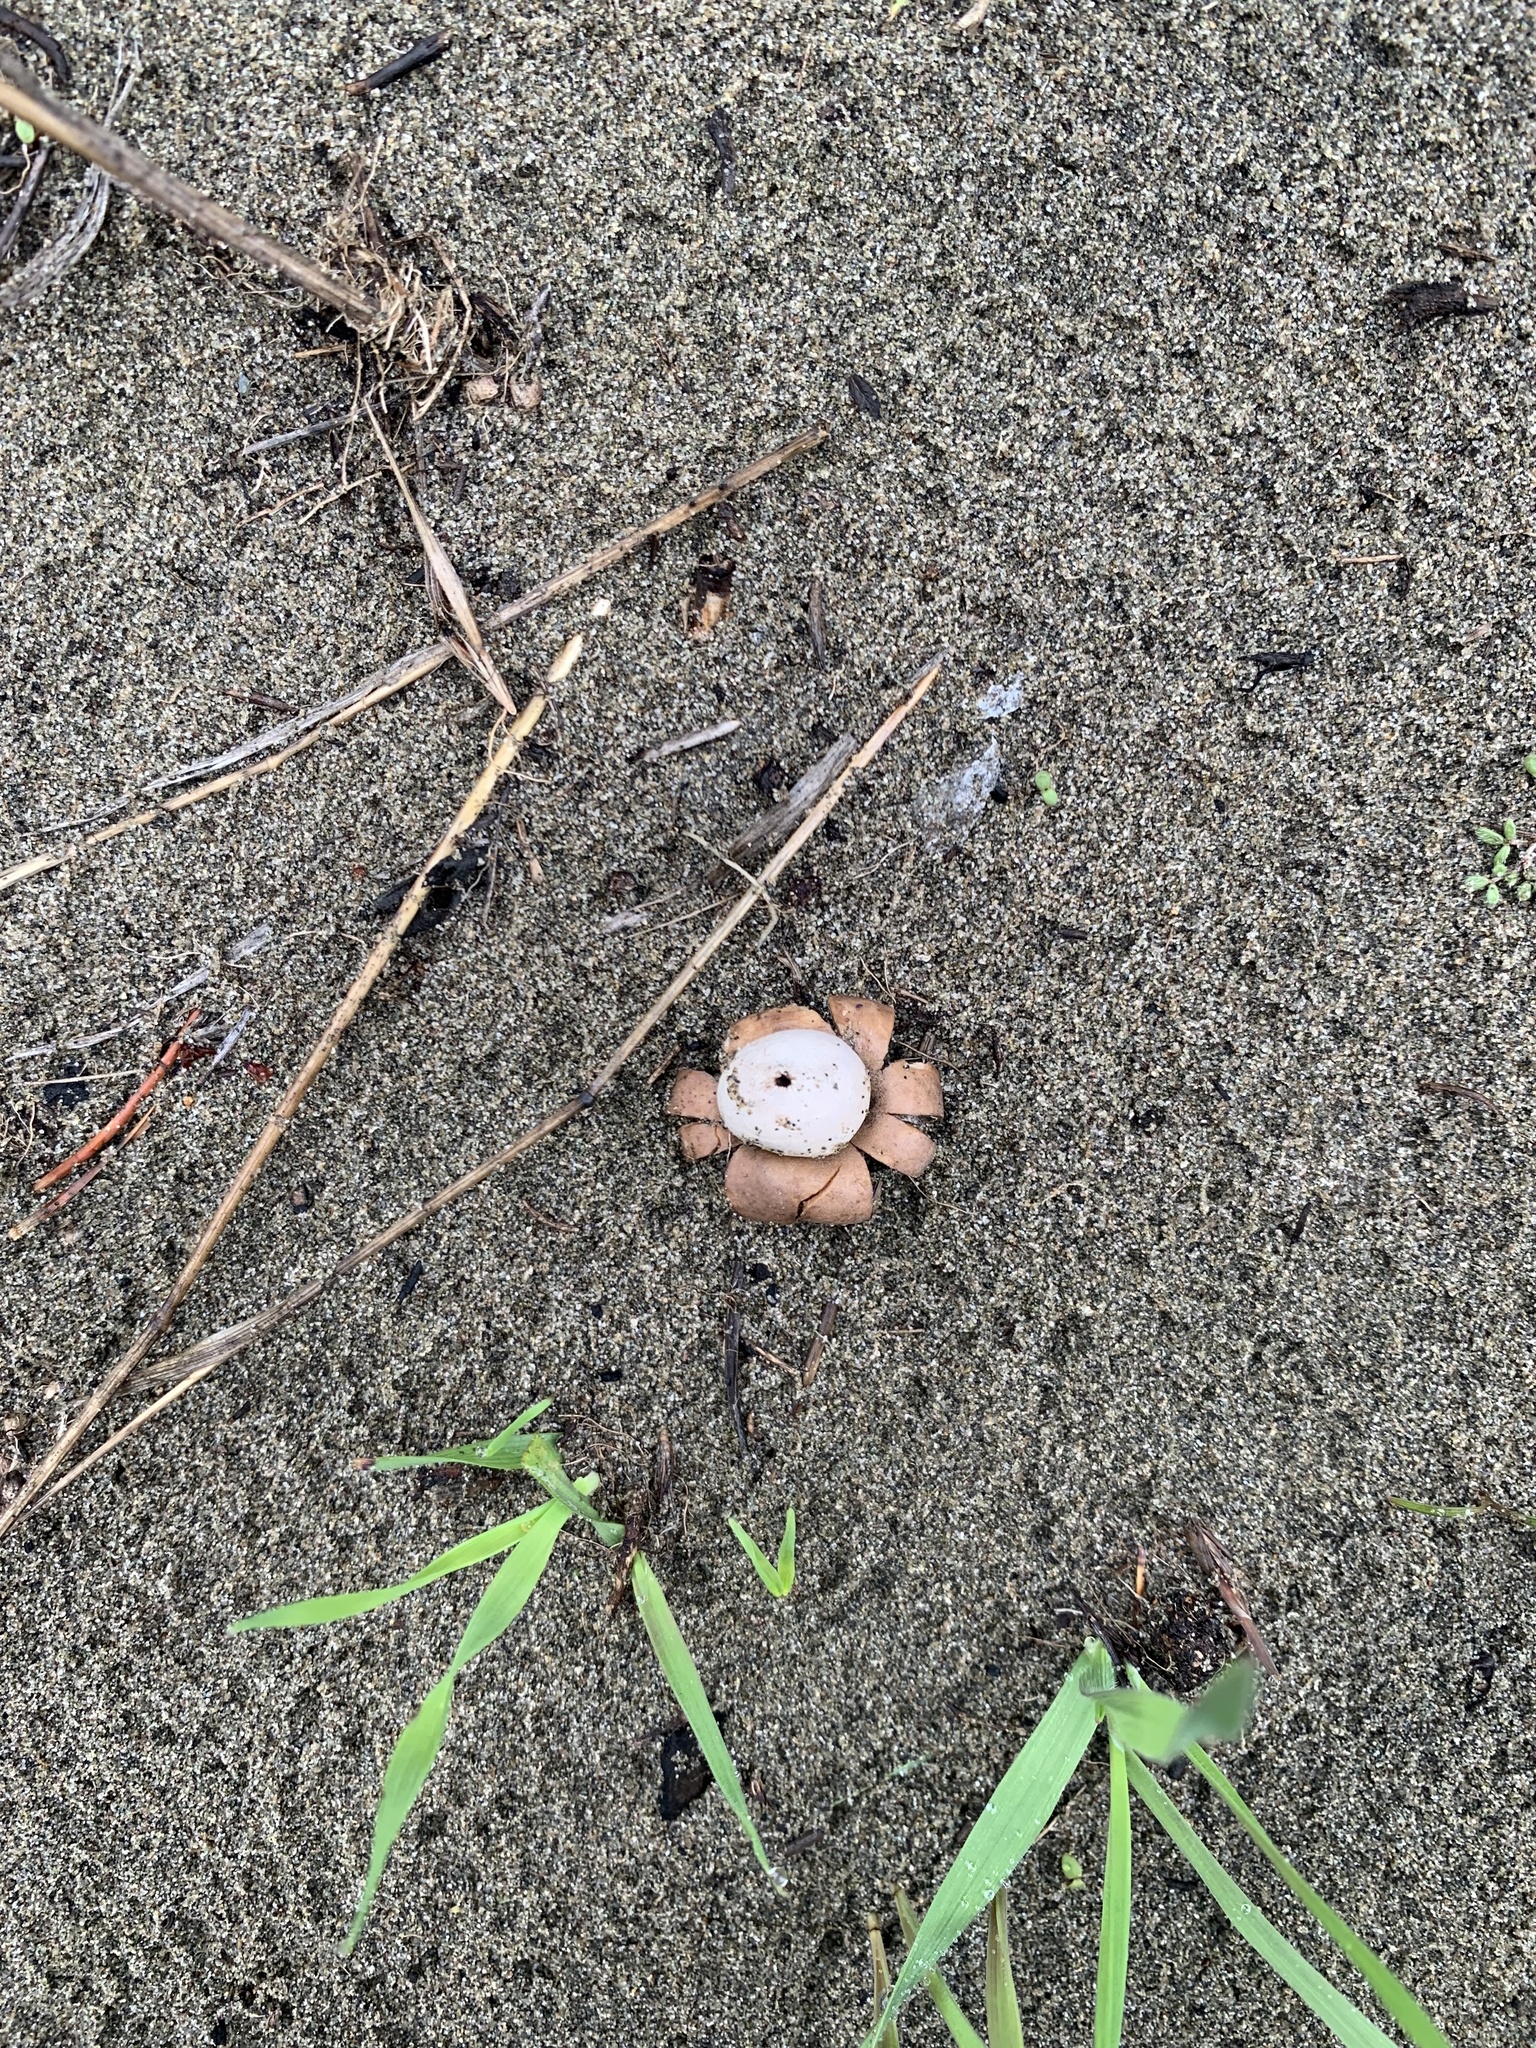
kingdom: Fungi
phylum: Basidiomycota
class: Agaricomycetes
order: Boletales
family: Diplocystidiaceae
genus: Astraeus
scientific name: Astraeus hygrometricus
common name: Barometer earthstar
